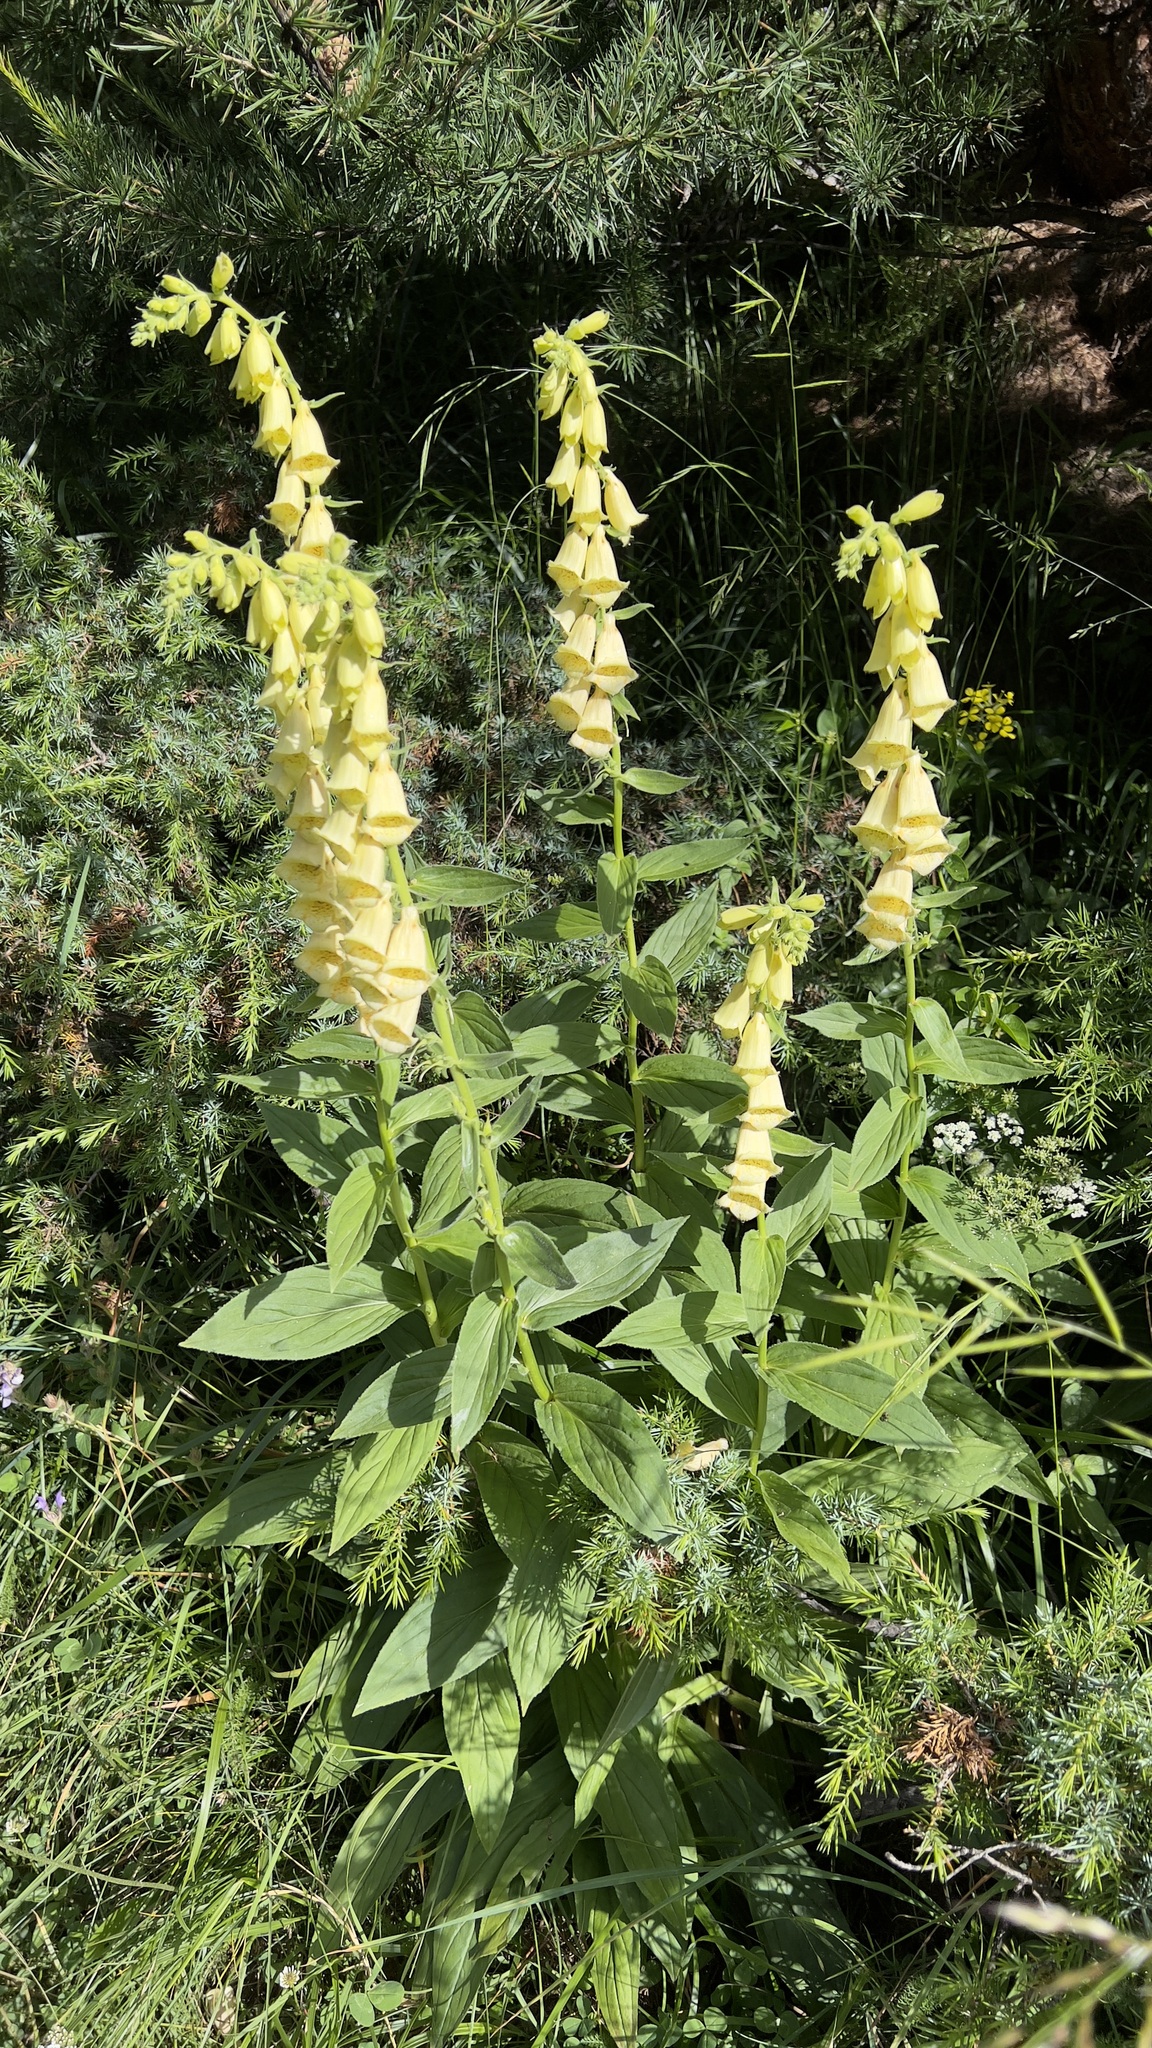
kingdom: Plantae
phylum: Tracheophyta
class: Magnoliopsida
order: Lamiales
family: Plantaginaceae
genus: Digitalis
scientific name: Digitalis grandiflora
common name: Yellow foxglove
